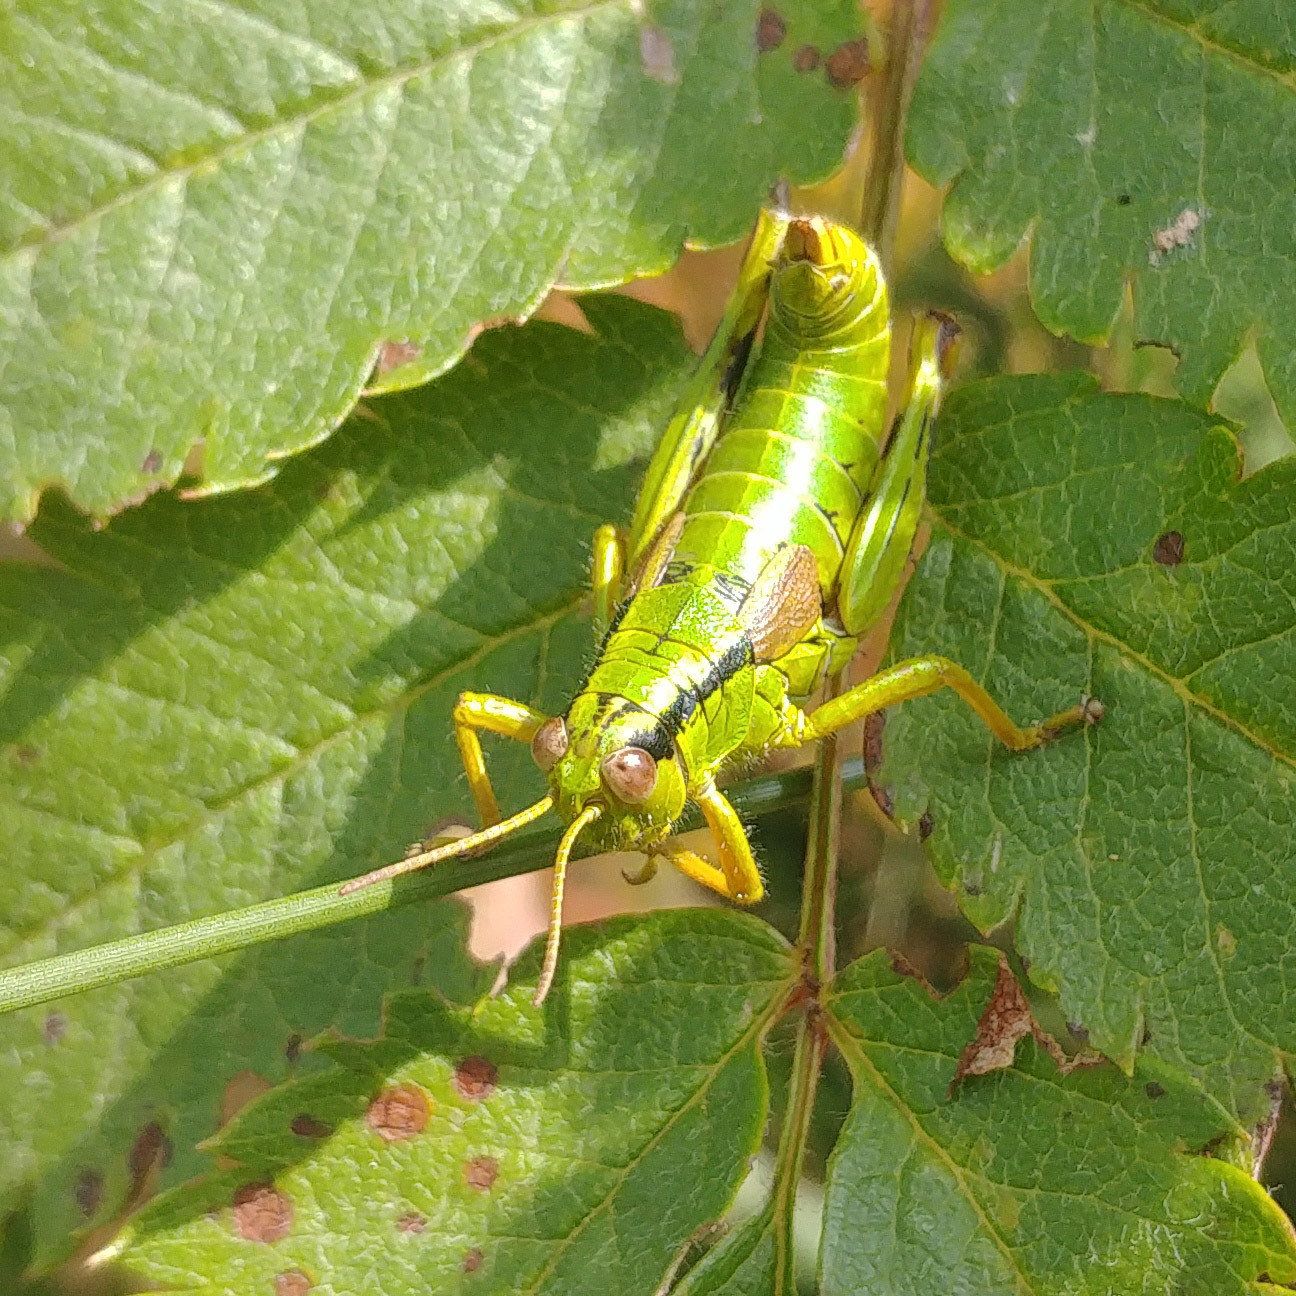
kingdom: Animalia
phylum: Arthropoda
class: Insecta
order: Orthoptera
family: Acrididae
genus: Miramella
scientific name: Miramella alpina
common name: Green mountain grasshopper
